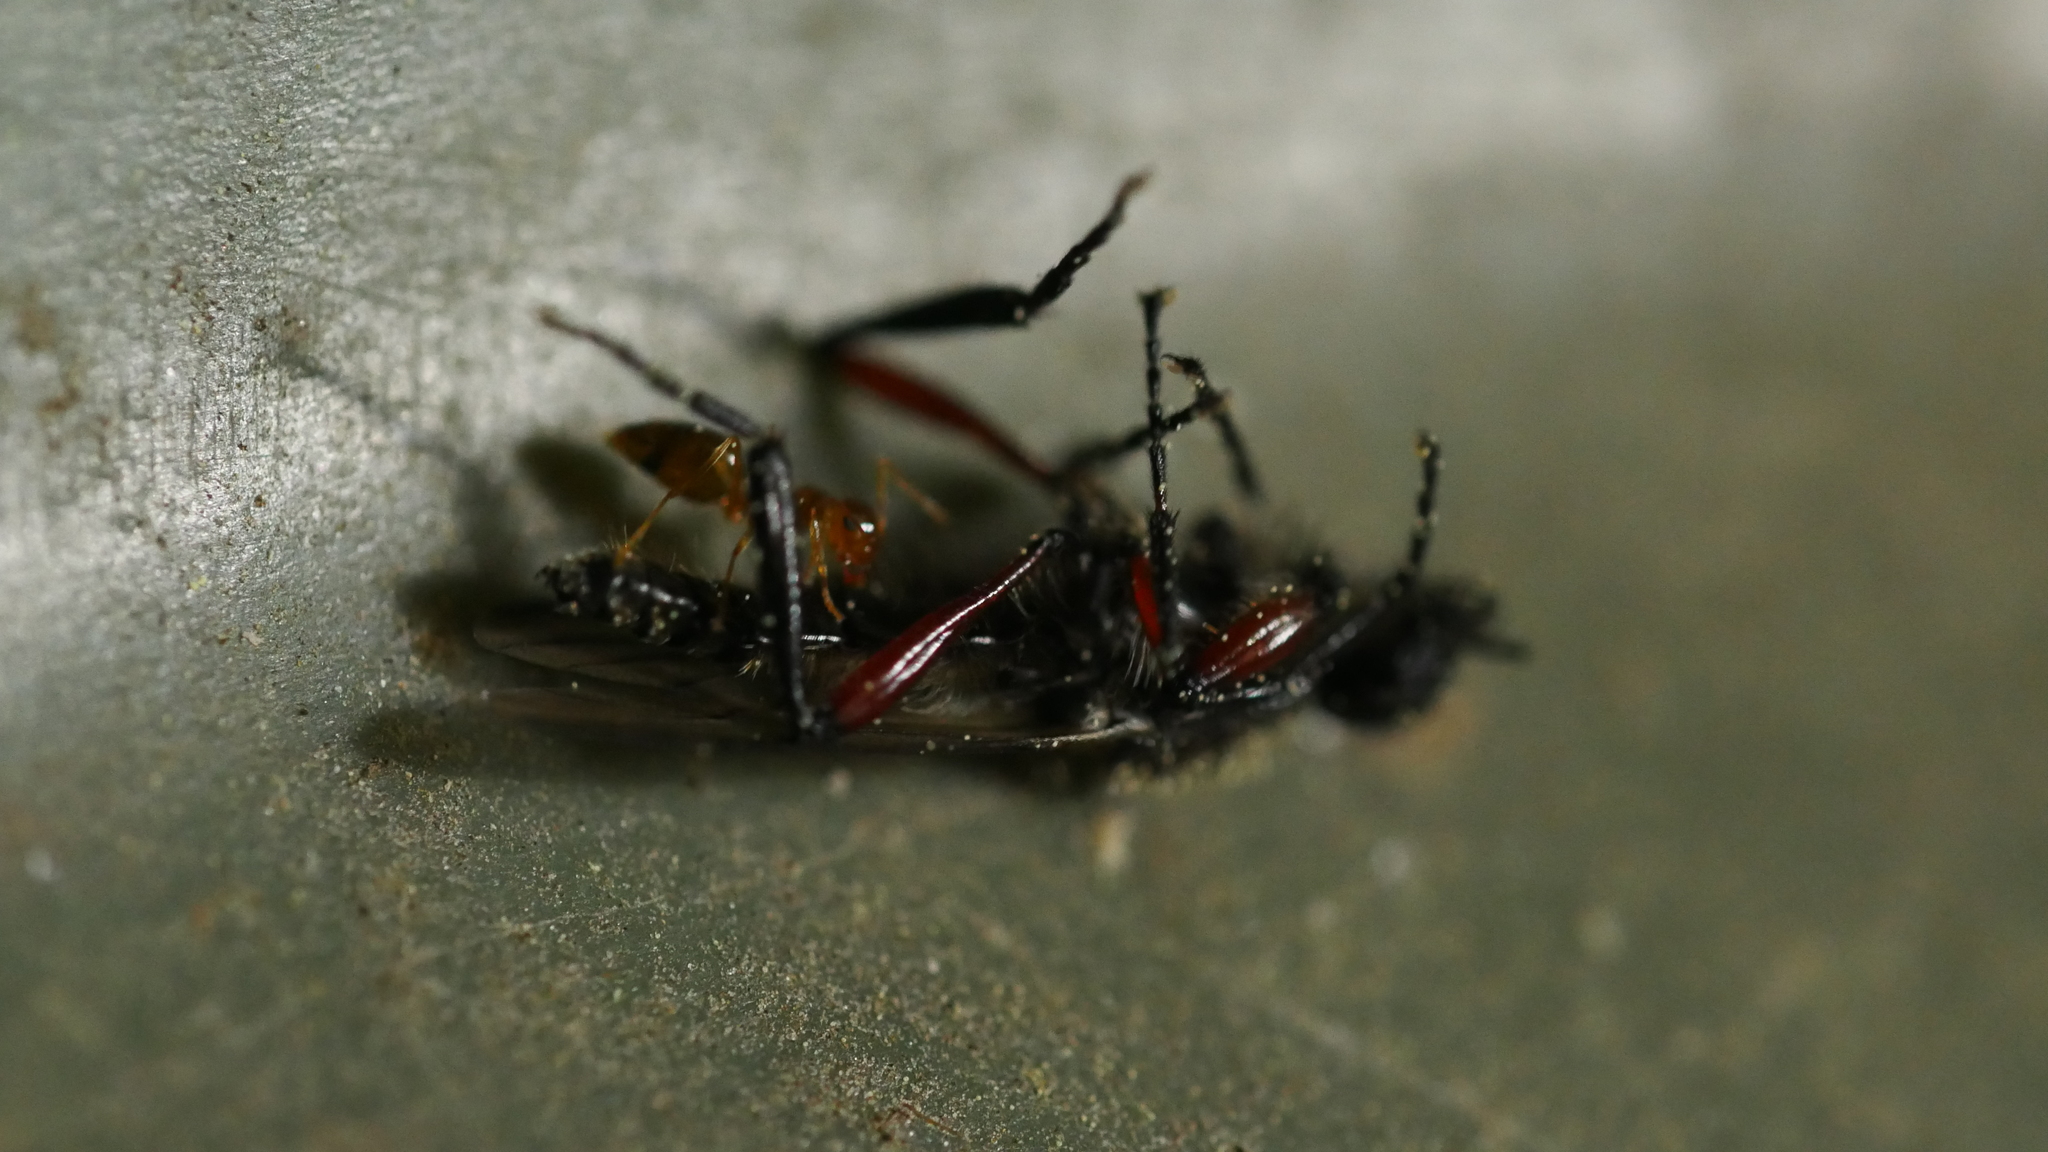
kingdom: Animalia
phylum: Arthropoda
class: Insecta
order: Hymenoptera
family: Formicidae
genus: Prenolepis
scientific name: Prenolepis imparis
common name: Small honey ant
